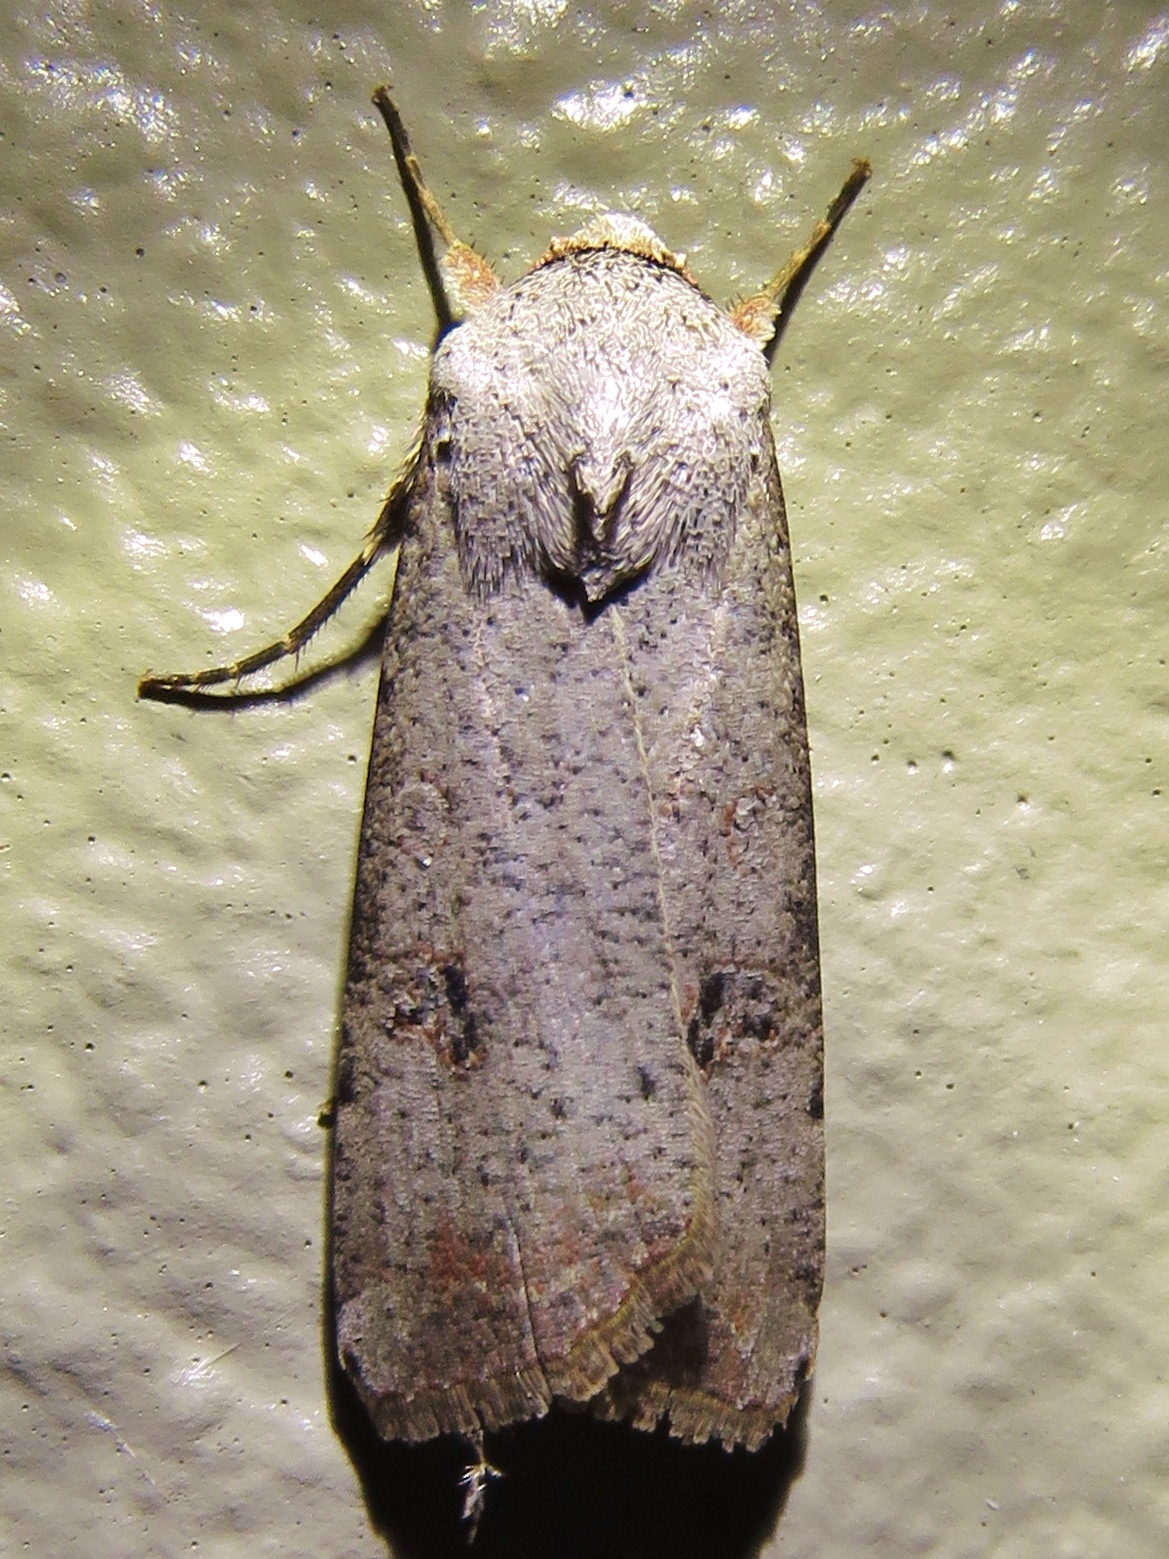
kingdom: Animalia
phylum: Arthropoda
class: Insecta
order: Lepidoptera
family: Noctuidae
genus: Anicla
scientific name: Anicla infecta
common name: Green cutworm
